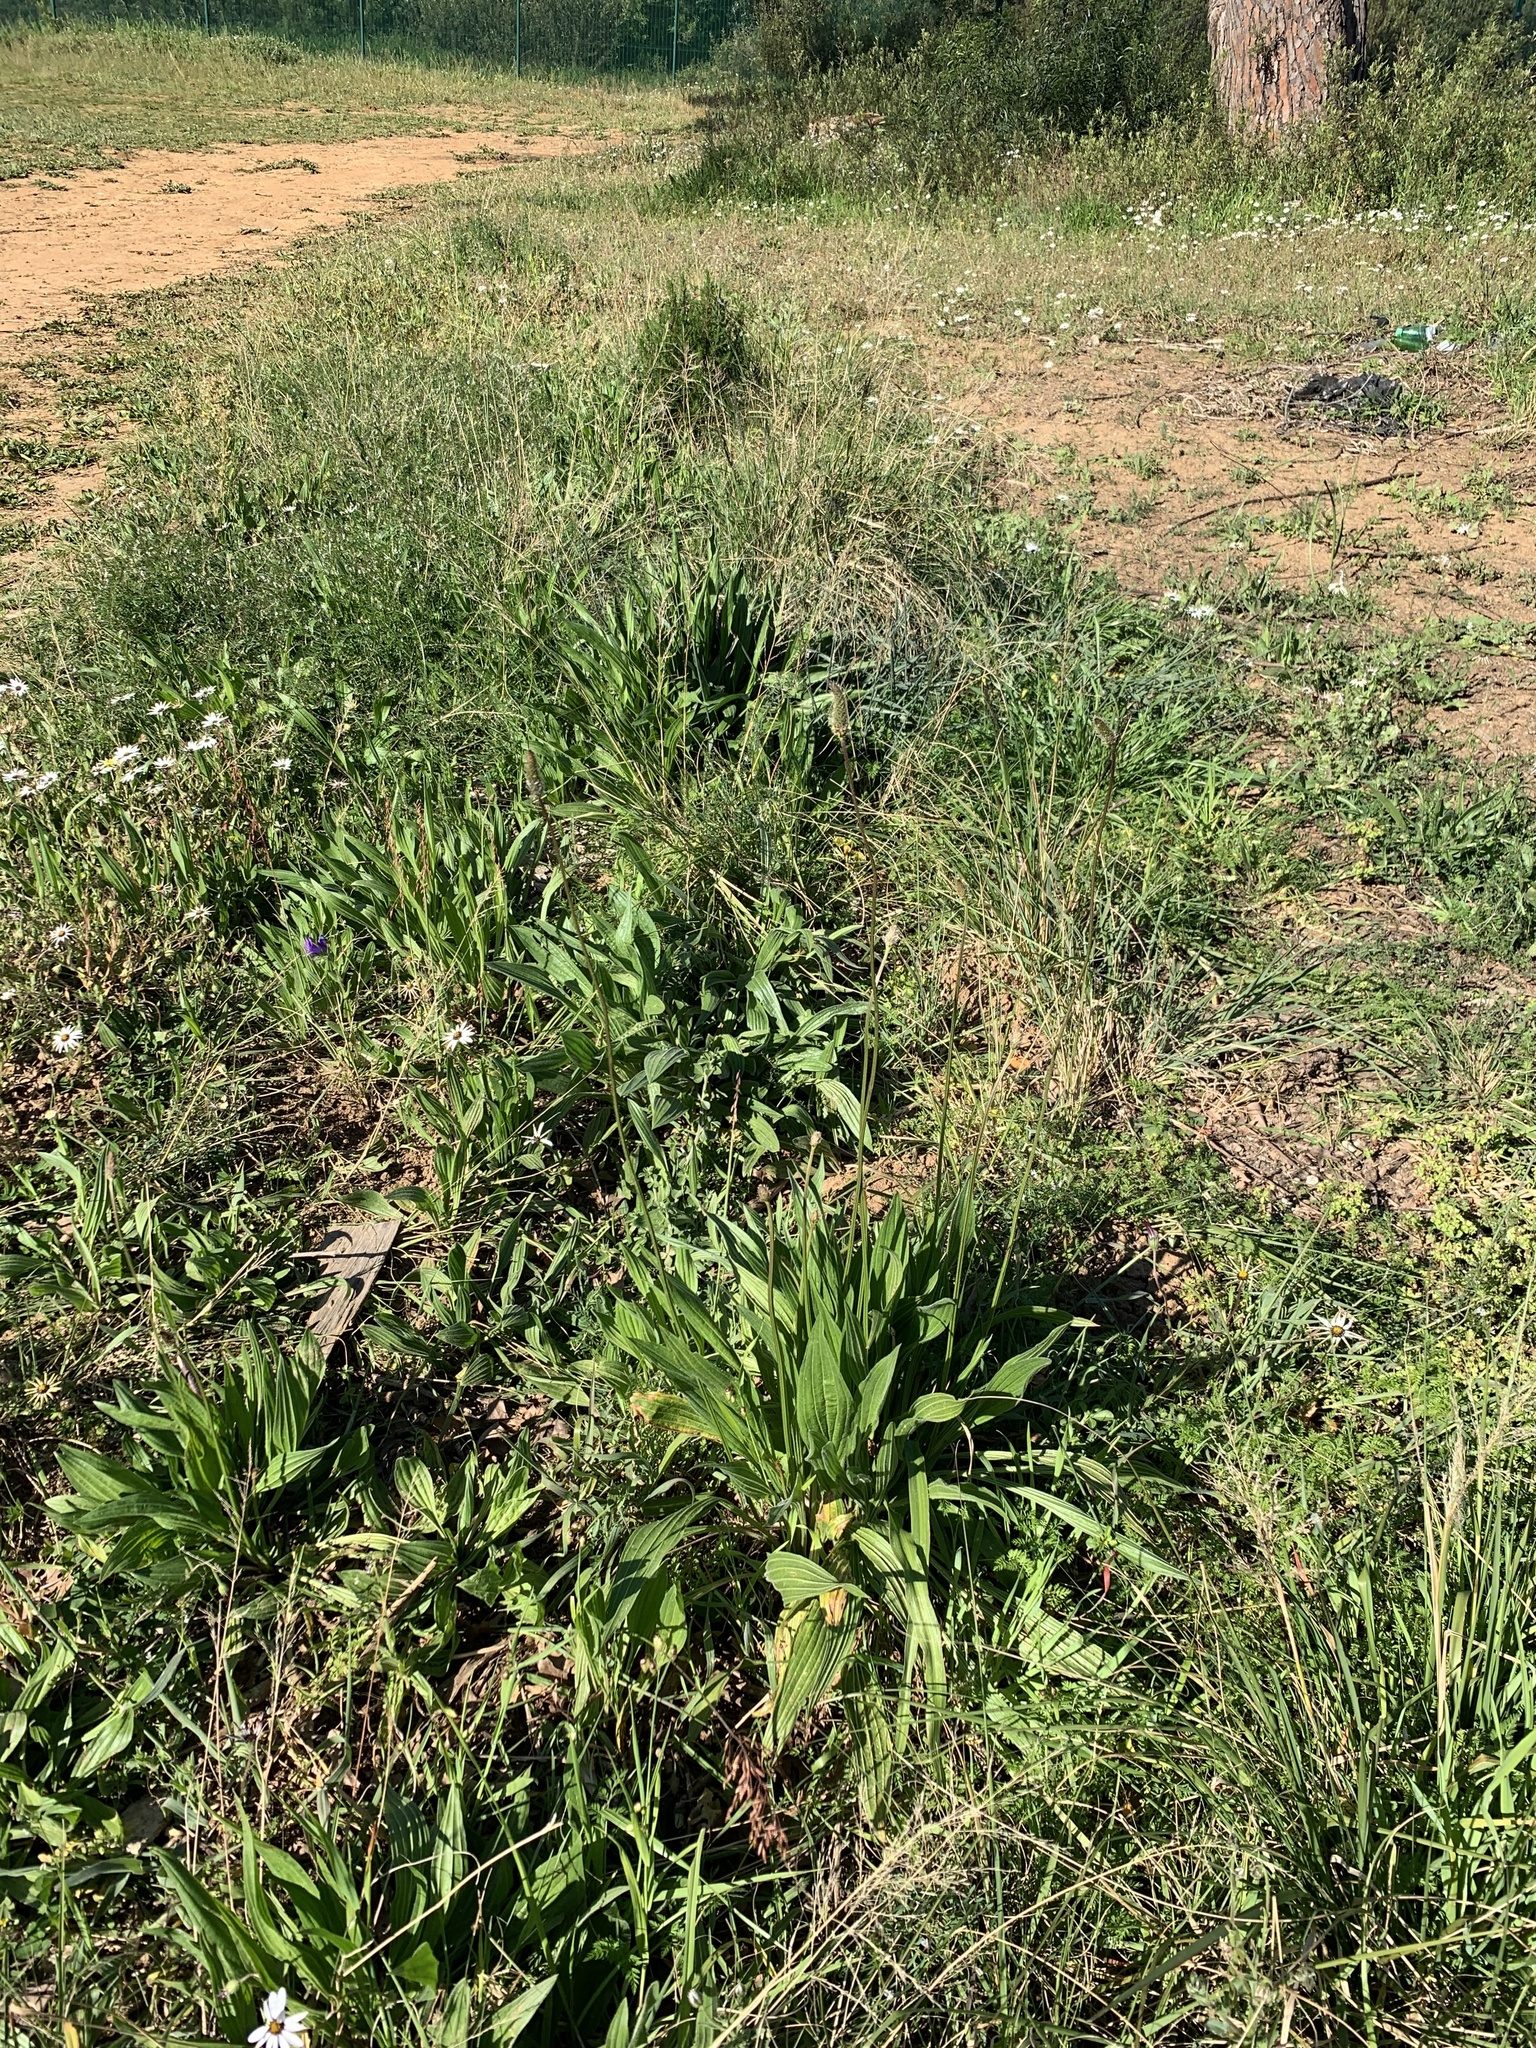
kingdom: Plantae
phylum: Tracheophyta
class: Magnoliopsida
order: Lamiales
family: Plantaginaceae
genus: Plantago
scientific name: Plantago lanceolata
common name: Ribwort plantain
